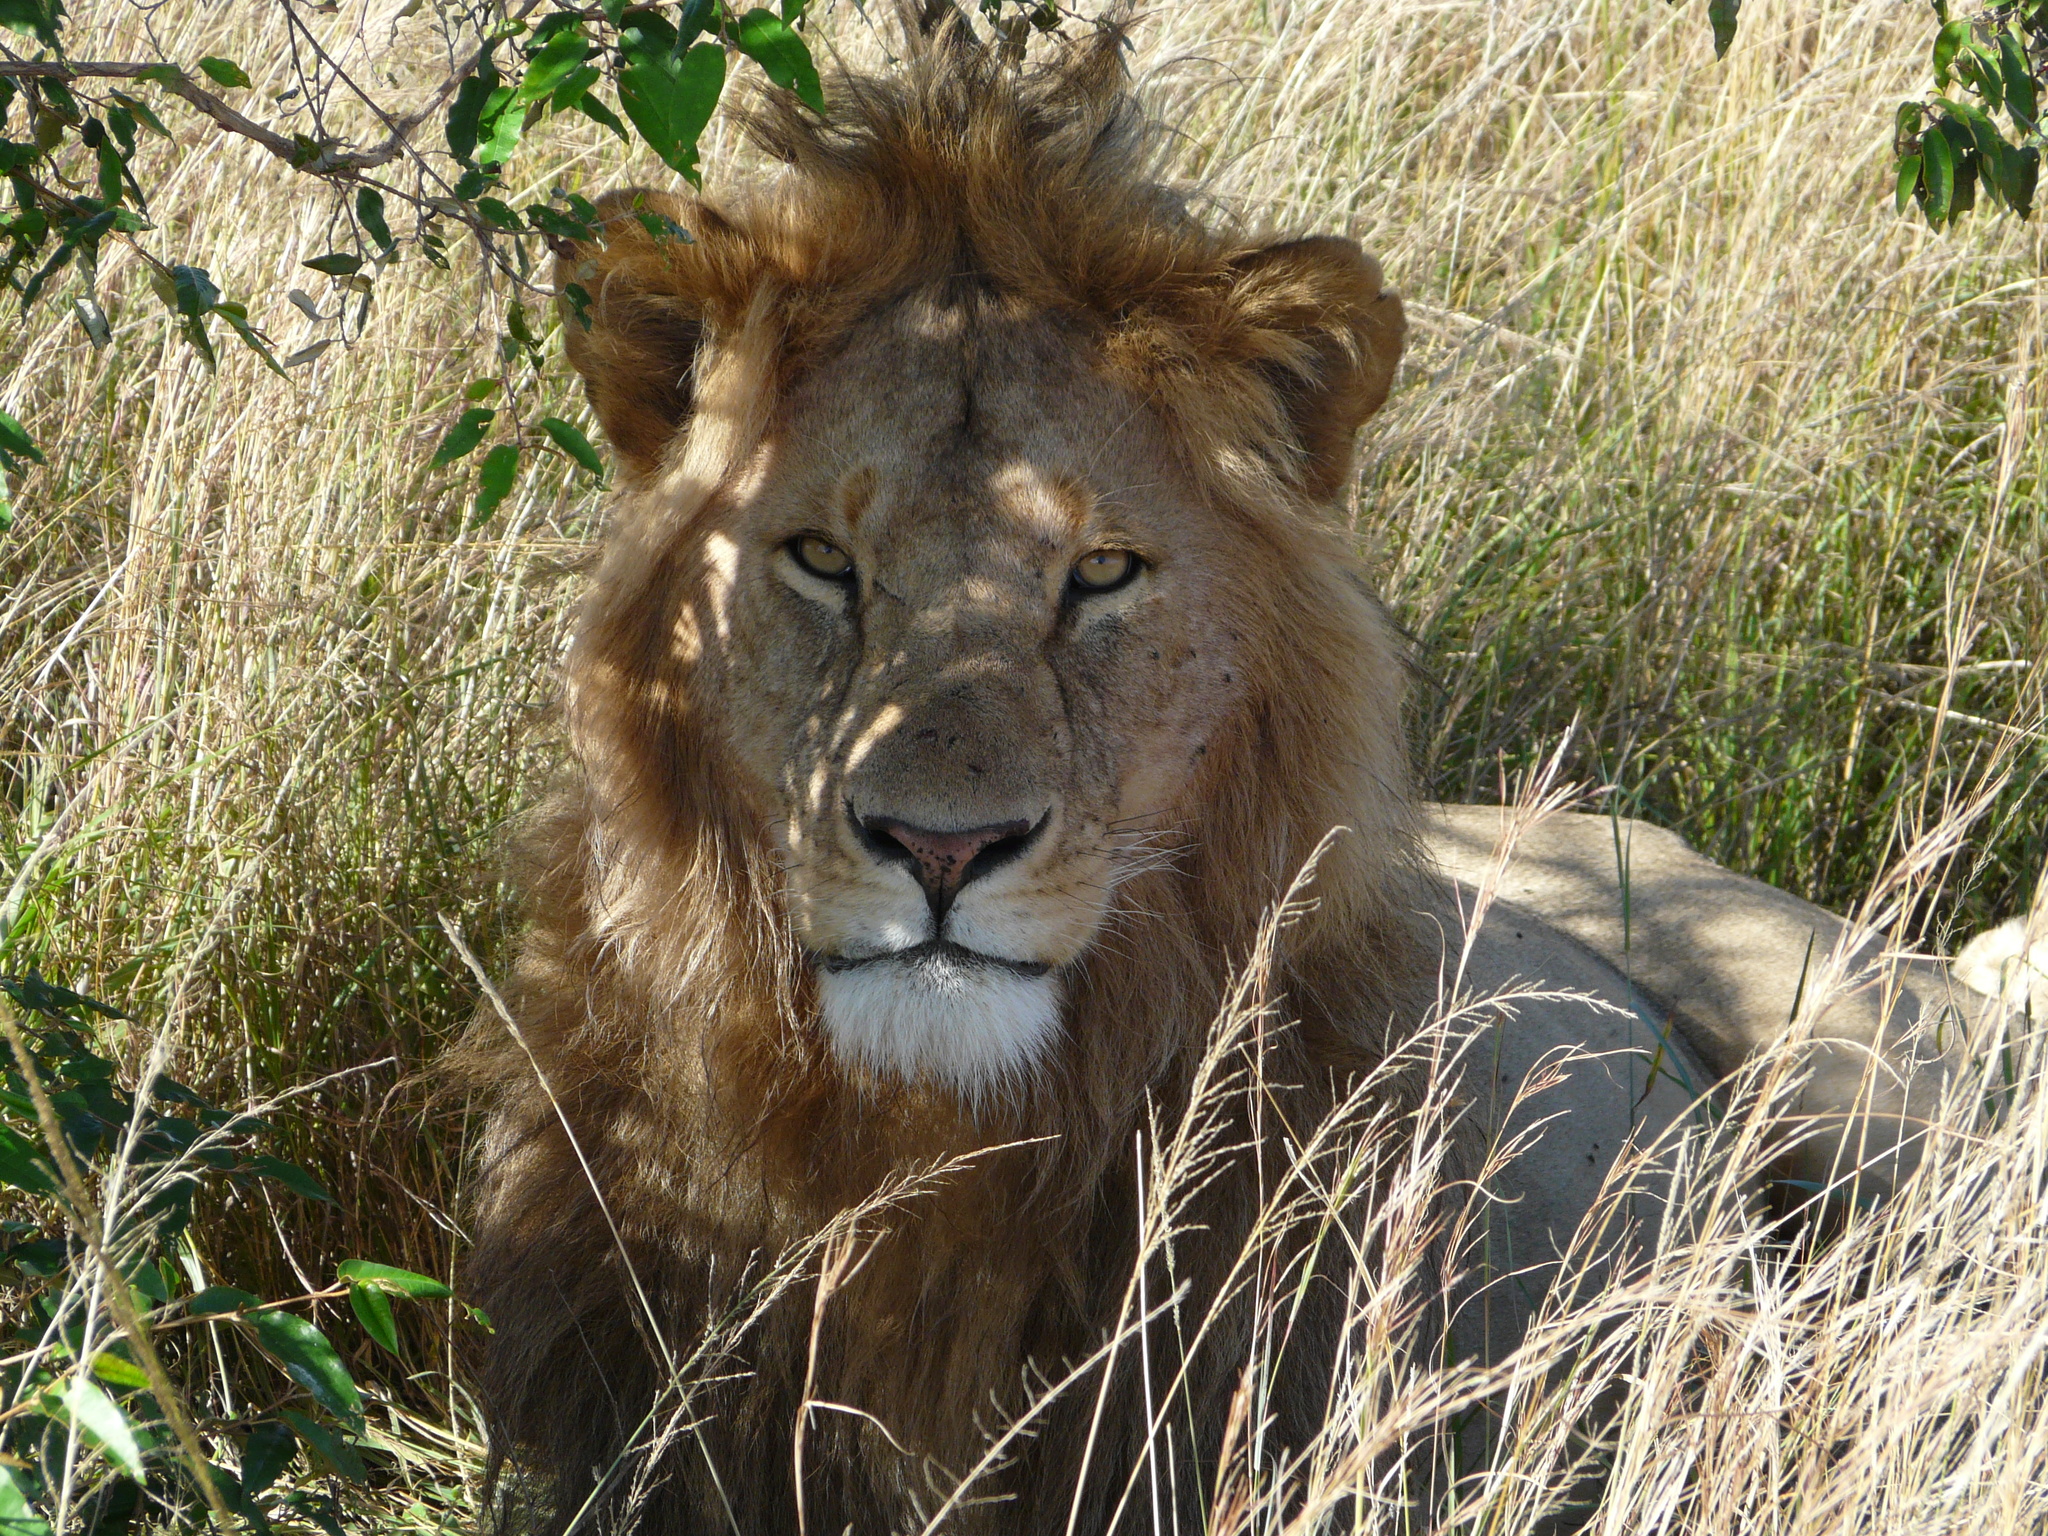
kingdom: Animalia
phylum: Chordata
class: Mammalia
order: Carnivora
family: Felidae
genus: Panthera
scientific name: Panthera leo
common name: Lion
